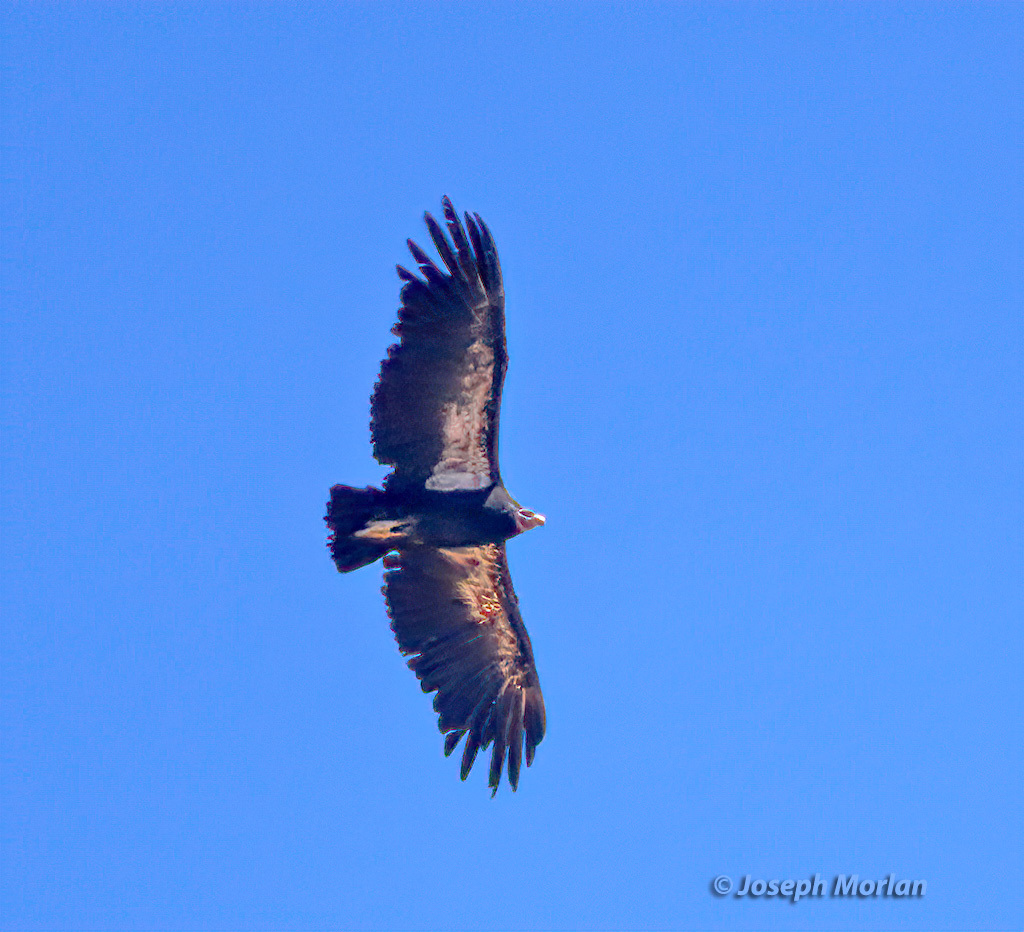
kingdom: Animalia
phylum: Chordata
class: Aves
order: Accipitriformes
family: Cathartidae
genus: Gymnogyps
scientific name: Gymnogyps californianus
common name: California condor
